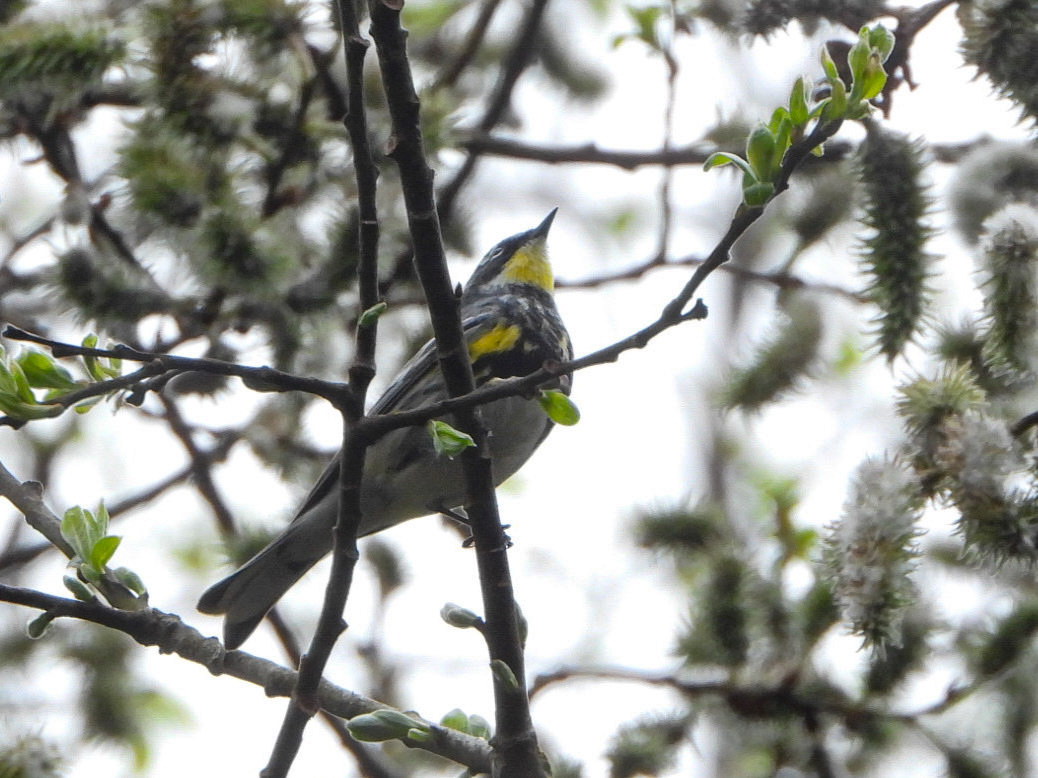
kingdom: Animalia
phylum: Chordata
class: Aves
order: Passeriformes
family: Parulidae
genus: Setophaga
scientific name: Setophaga
